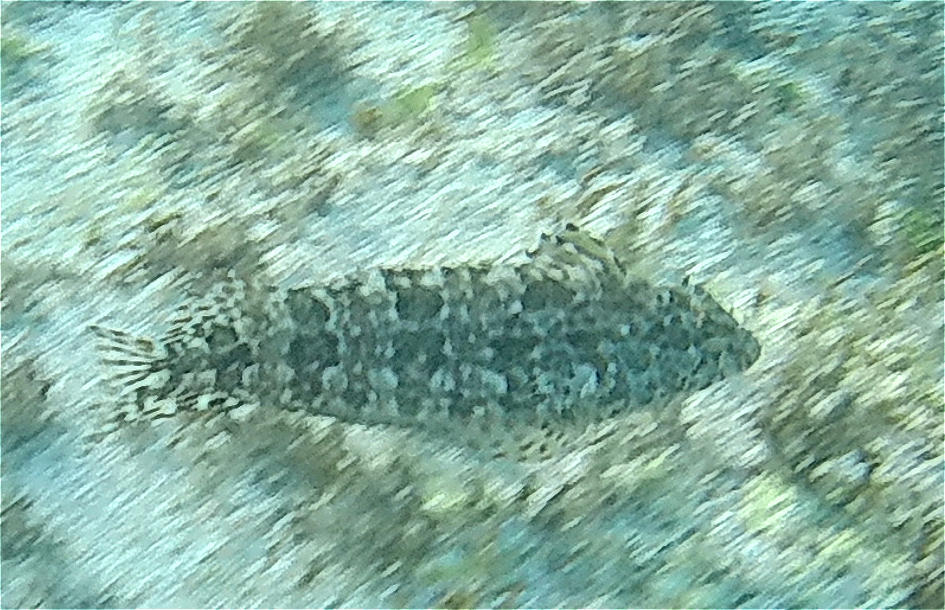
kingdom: Animalia
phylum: Chordata
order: Perciformes
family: Labrisomidae
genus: Gobioclinus
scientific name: Gobioclinus dendriticus
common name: Bravo clinid
